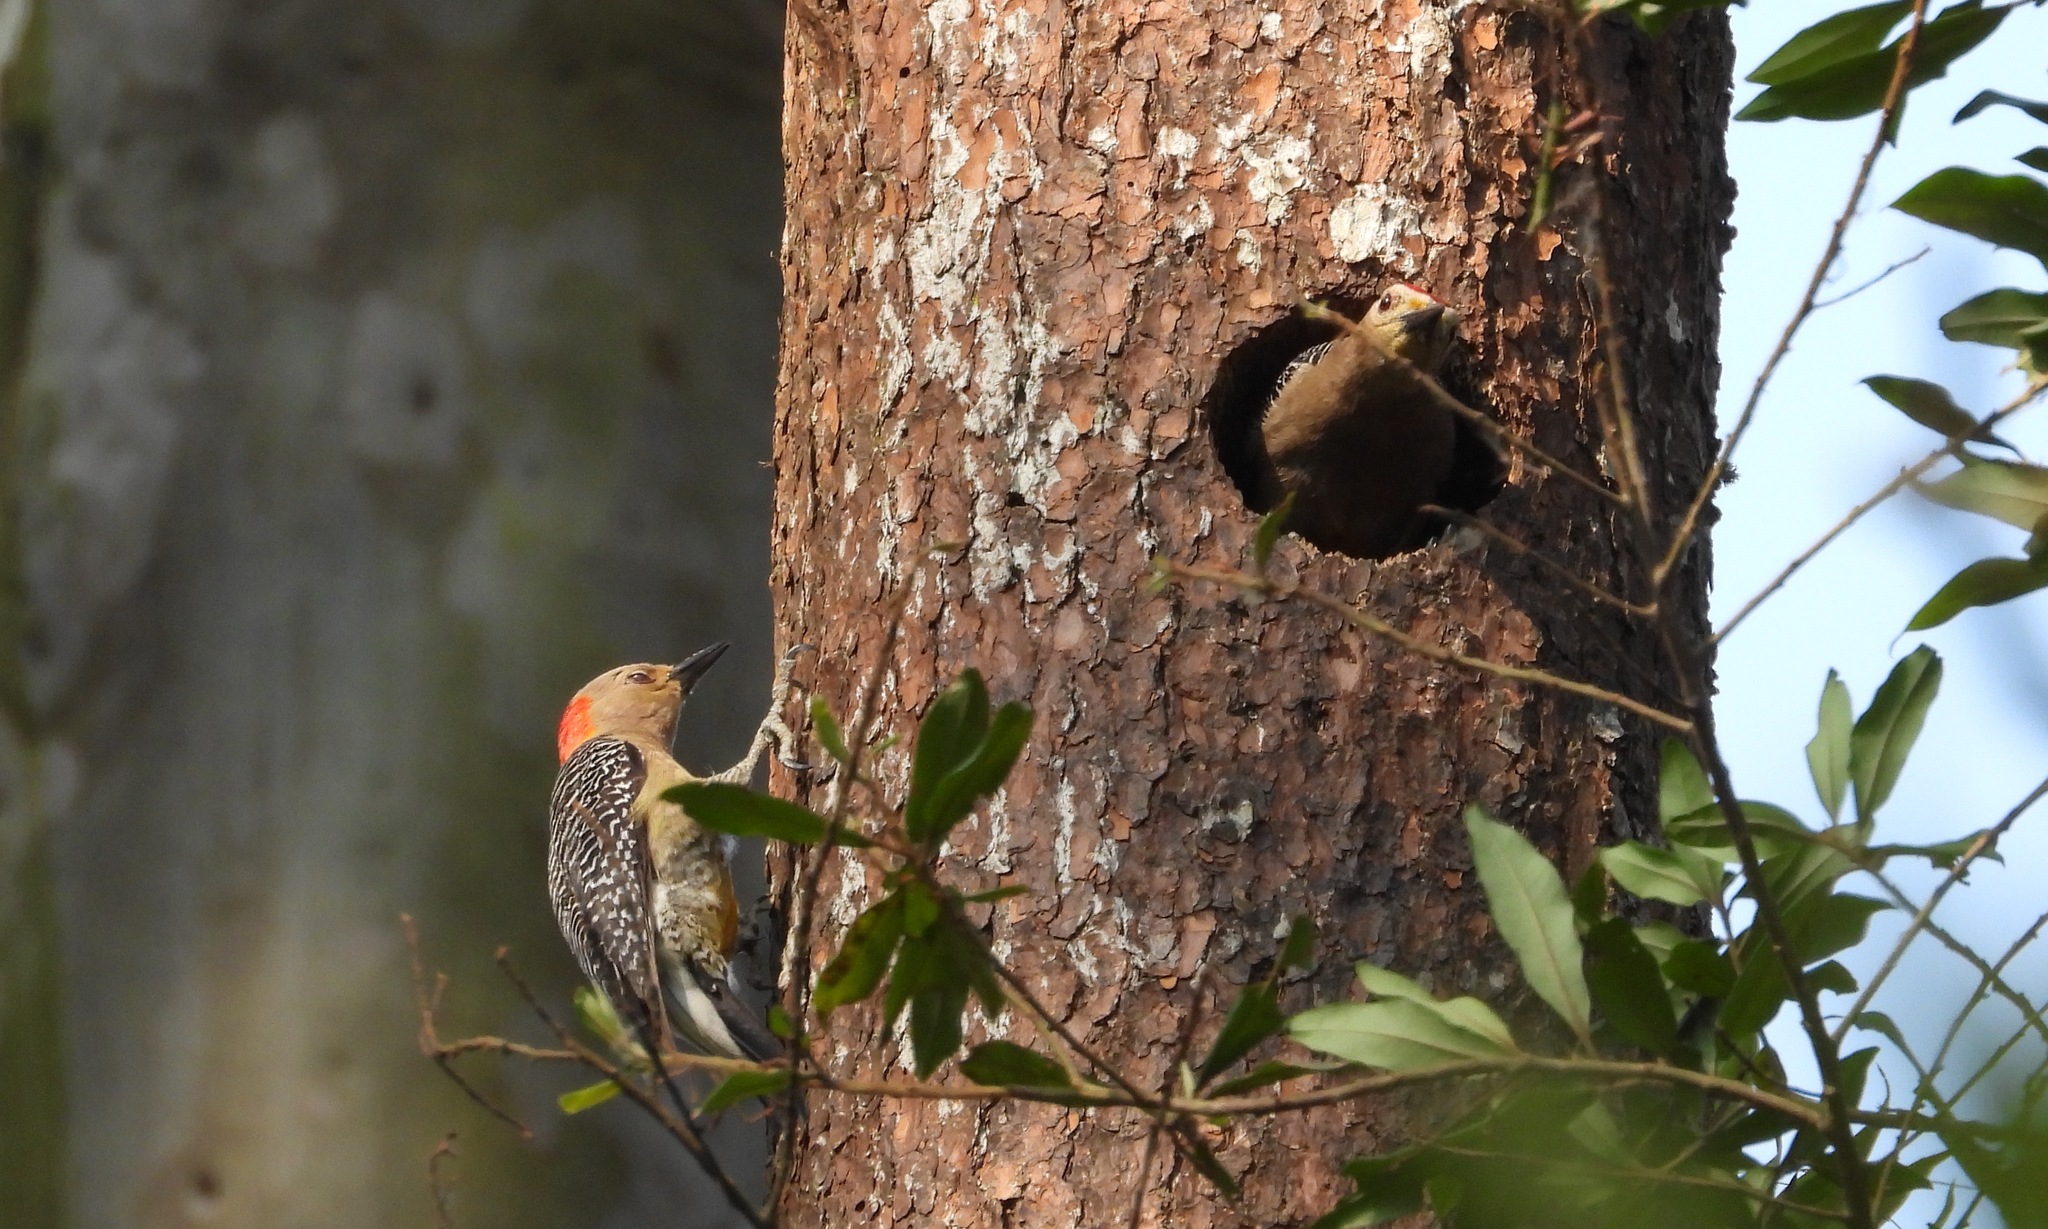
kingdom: Animalia
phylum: Chordata
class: Aves
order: Piciformes
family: Picidae
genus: Melanerpes
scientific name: Melanerpes aurifrons
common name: Golden-fronted woodpecker
